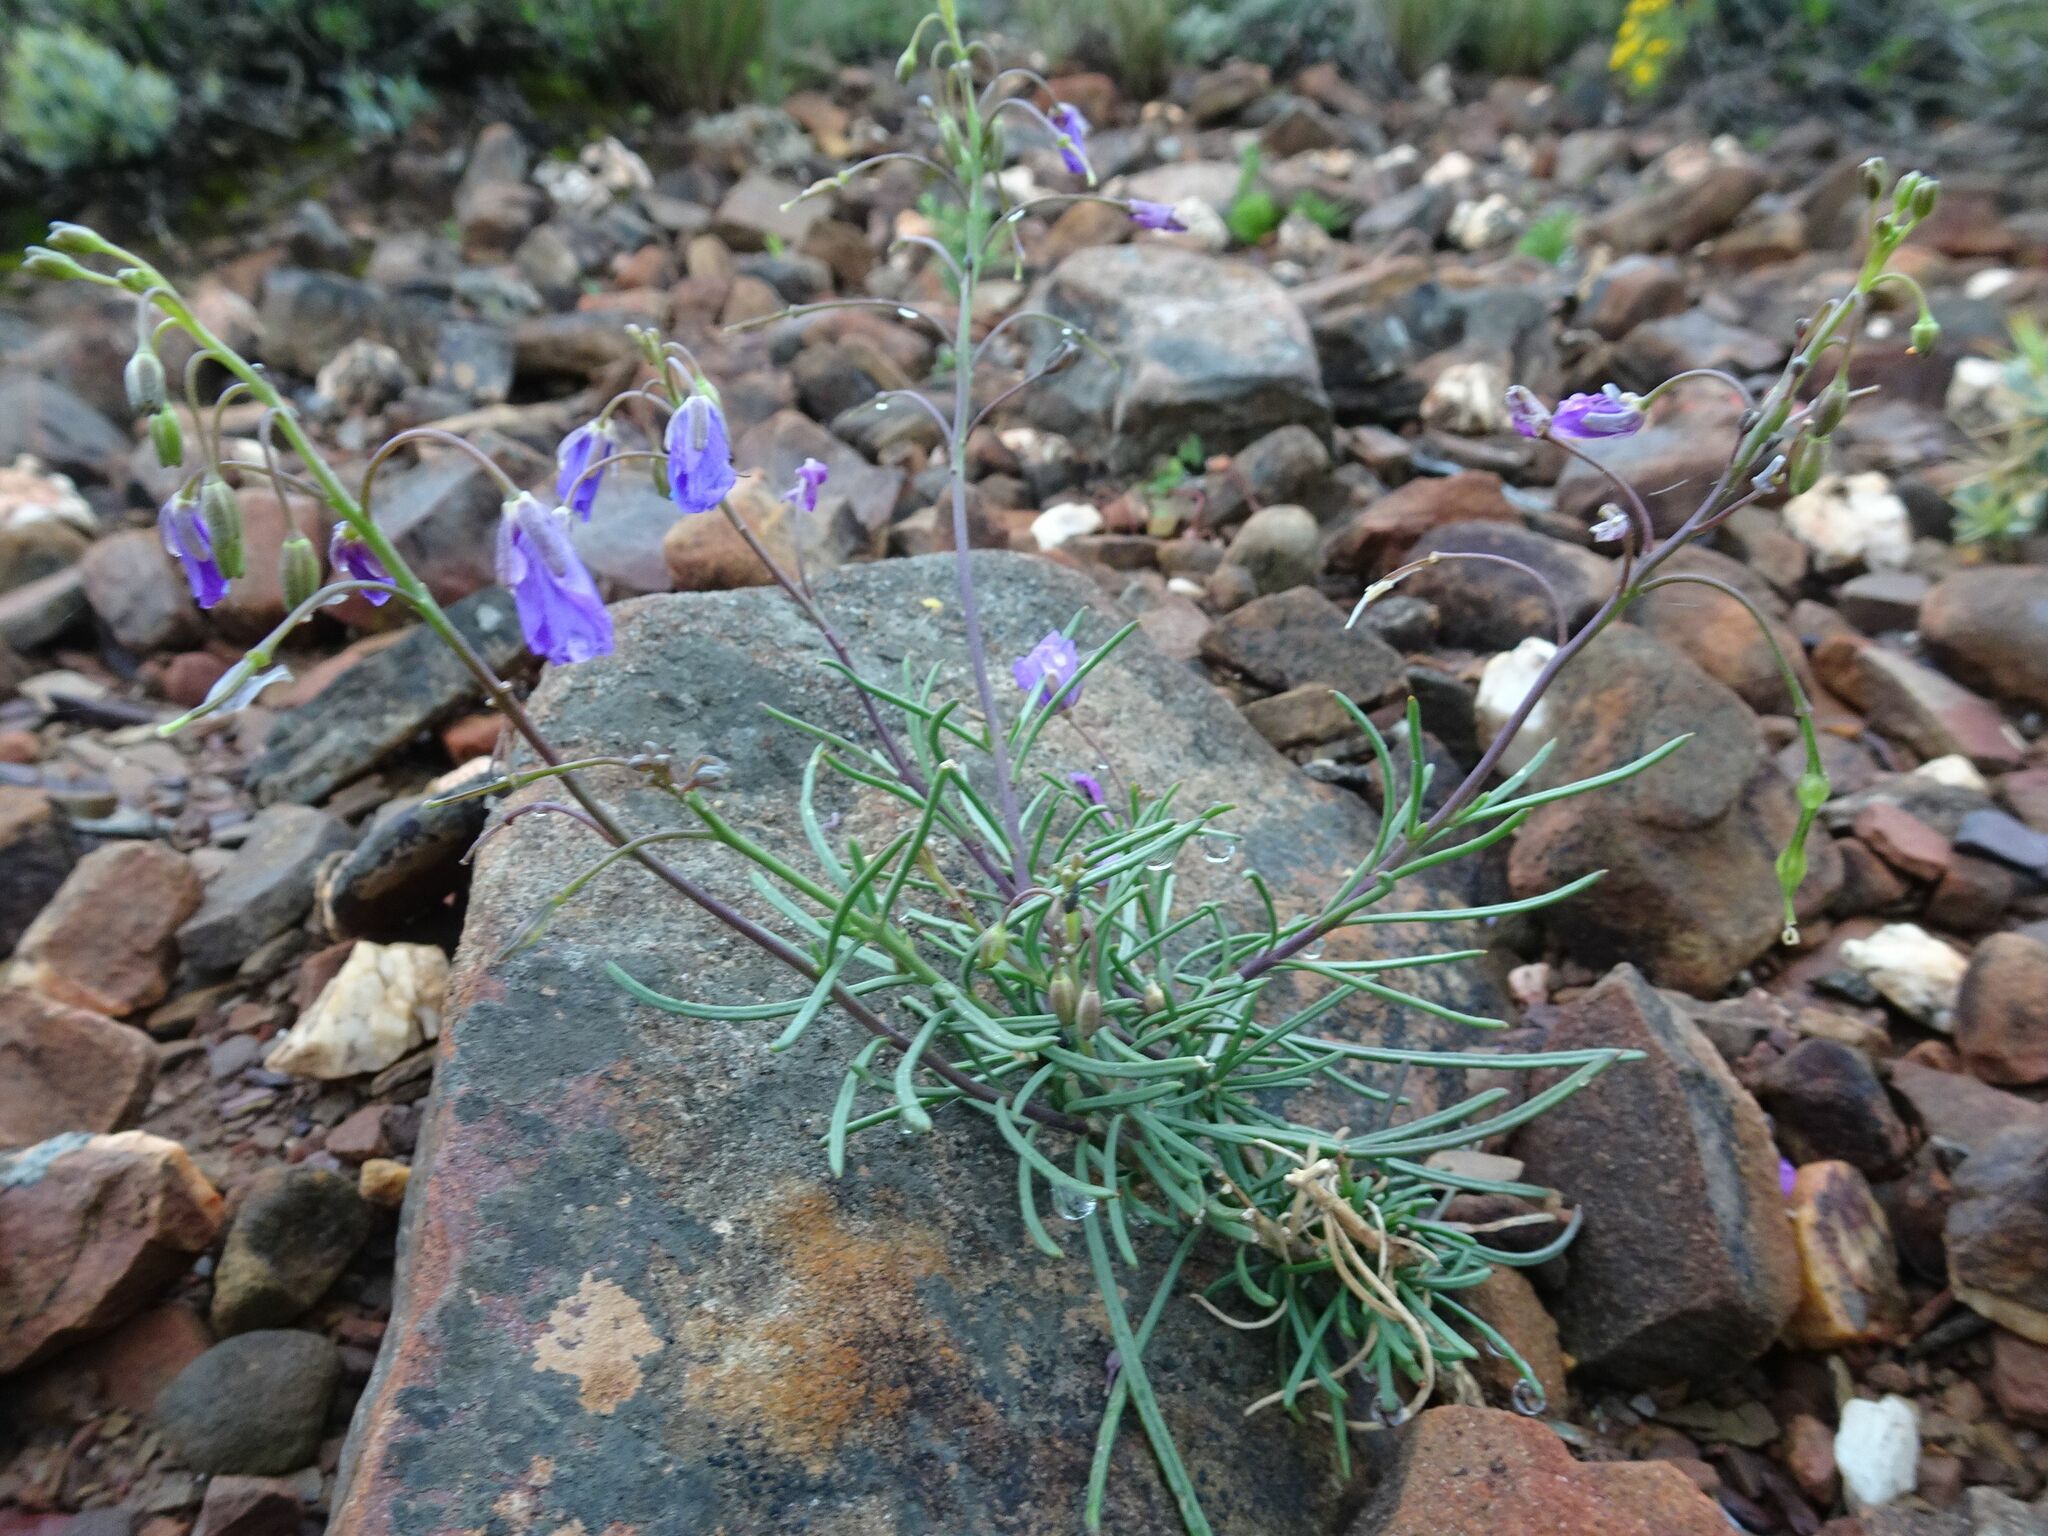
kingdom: Plantae
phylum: Tracheophyta
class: Magnoliopsida
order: Brassicales
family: Brassicaceae
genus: Heliophila
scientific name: Heliophila suavissima
